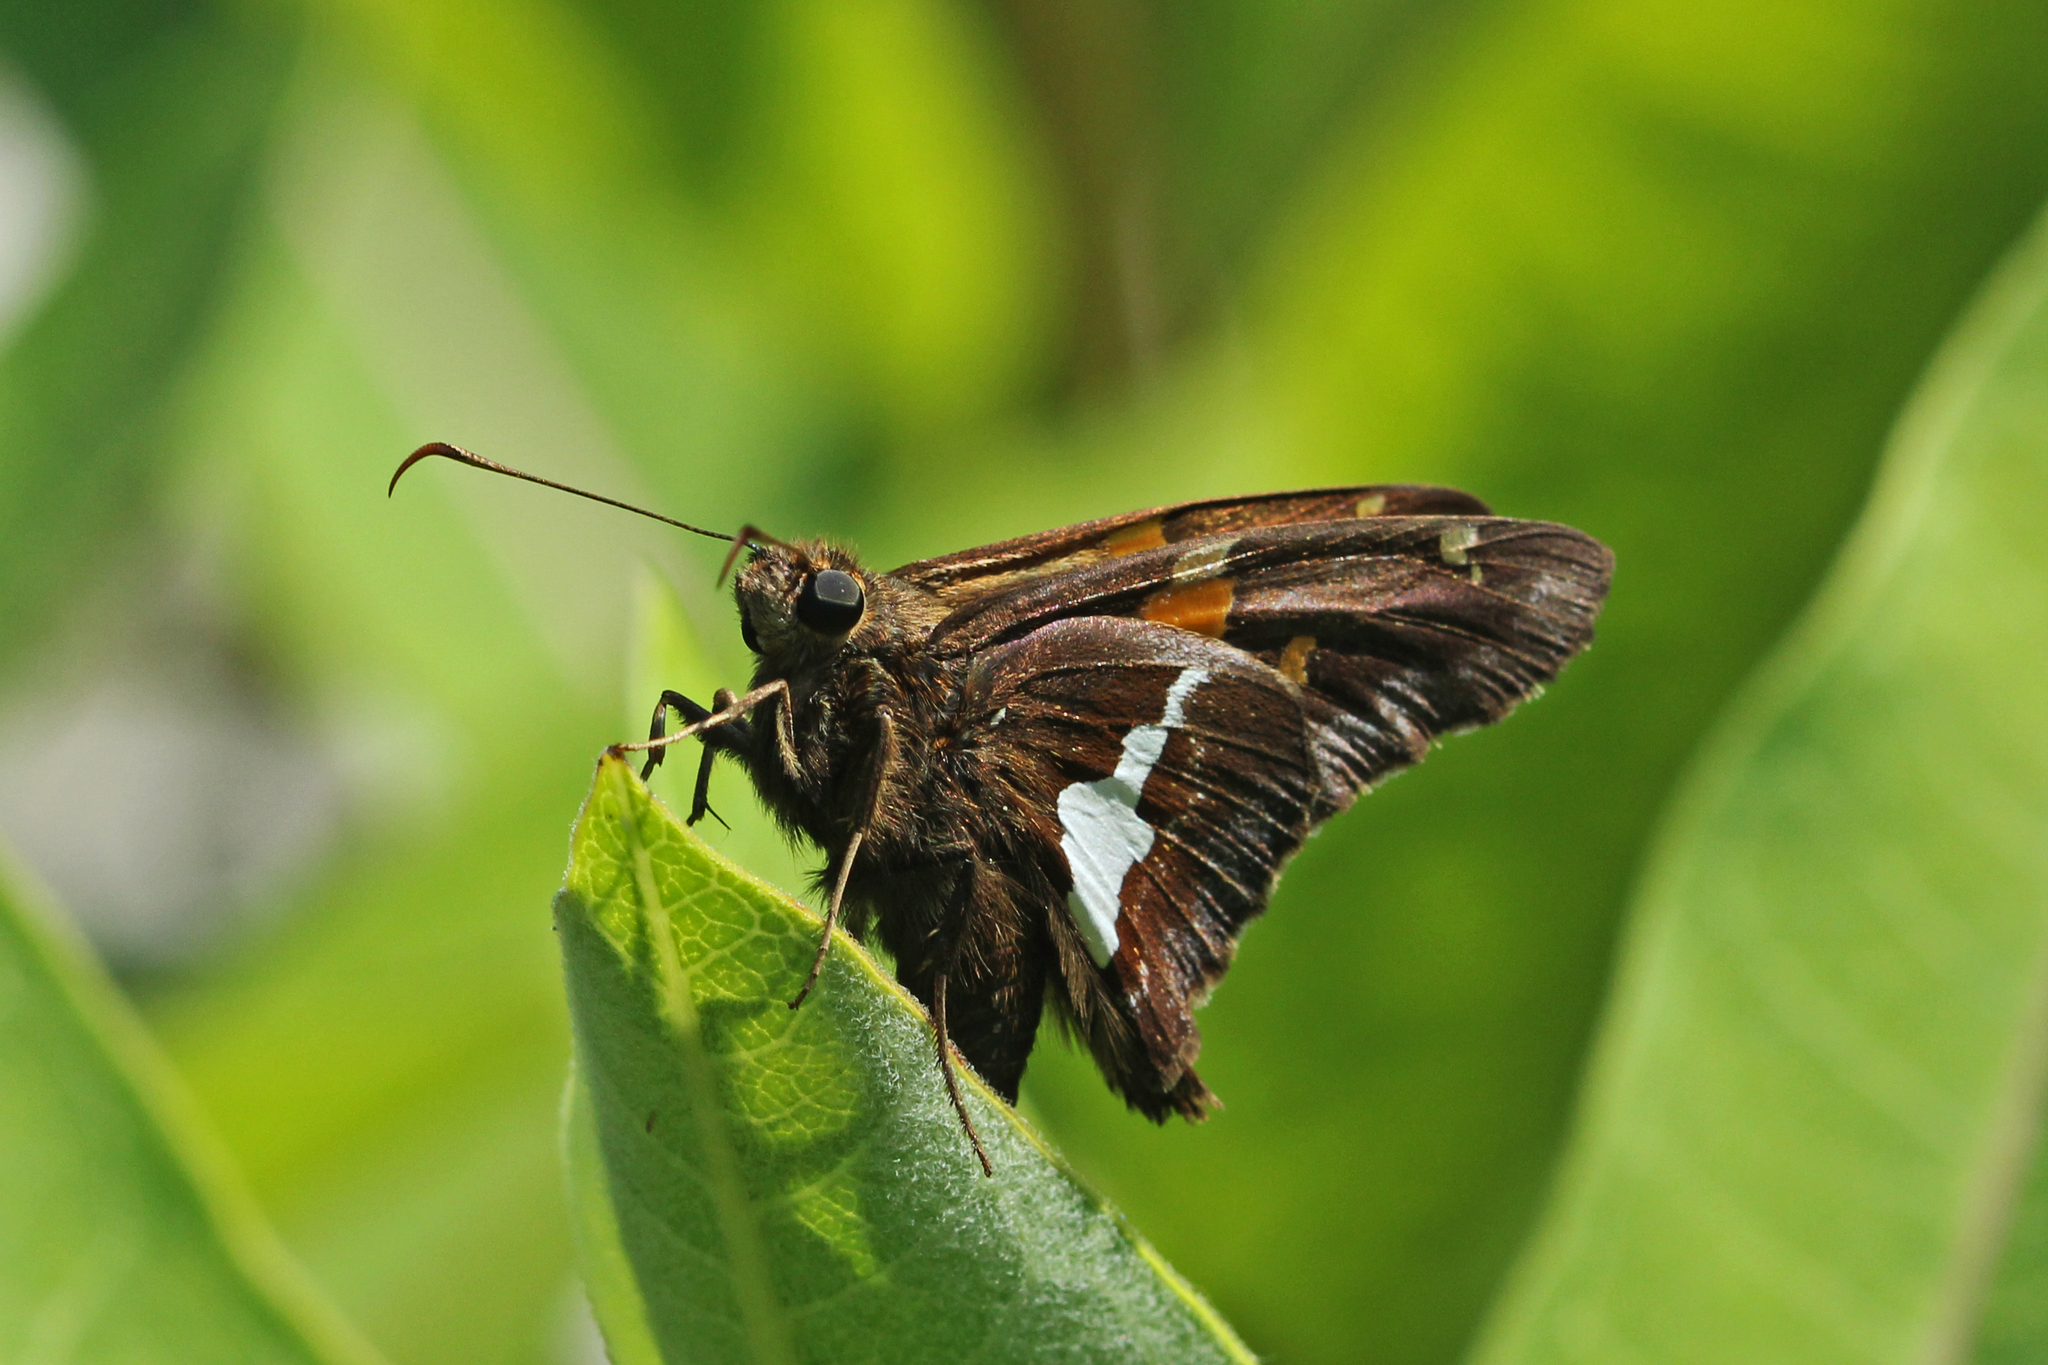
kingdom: Animalia
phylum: Arthropoda
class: Insecta
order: Lepidoptera
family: Hesperiidae
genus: Epargyreus
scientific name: Epargyreus clarus
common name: Silver-spotted skipper
